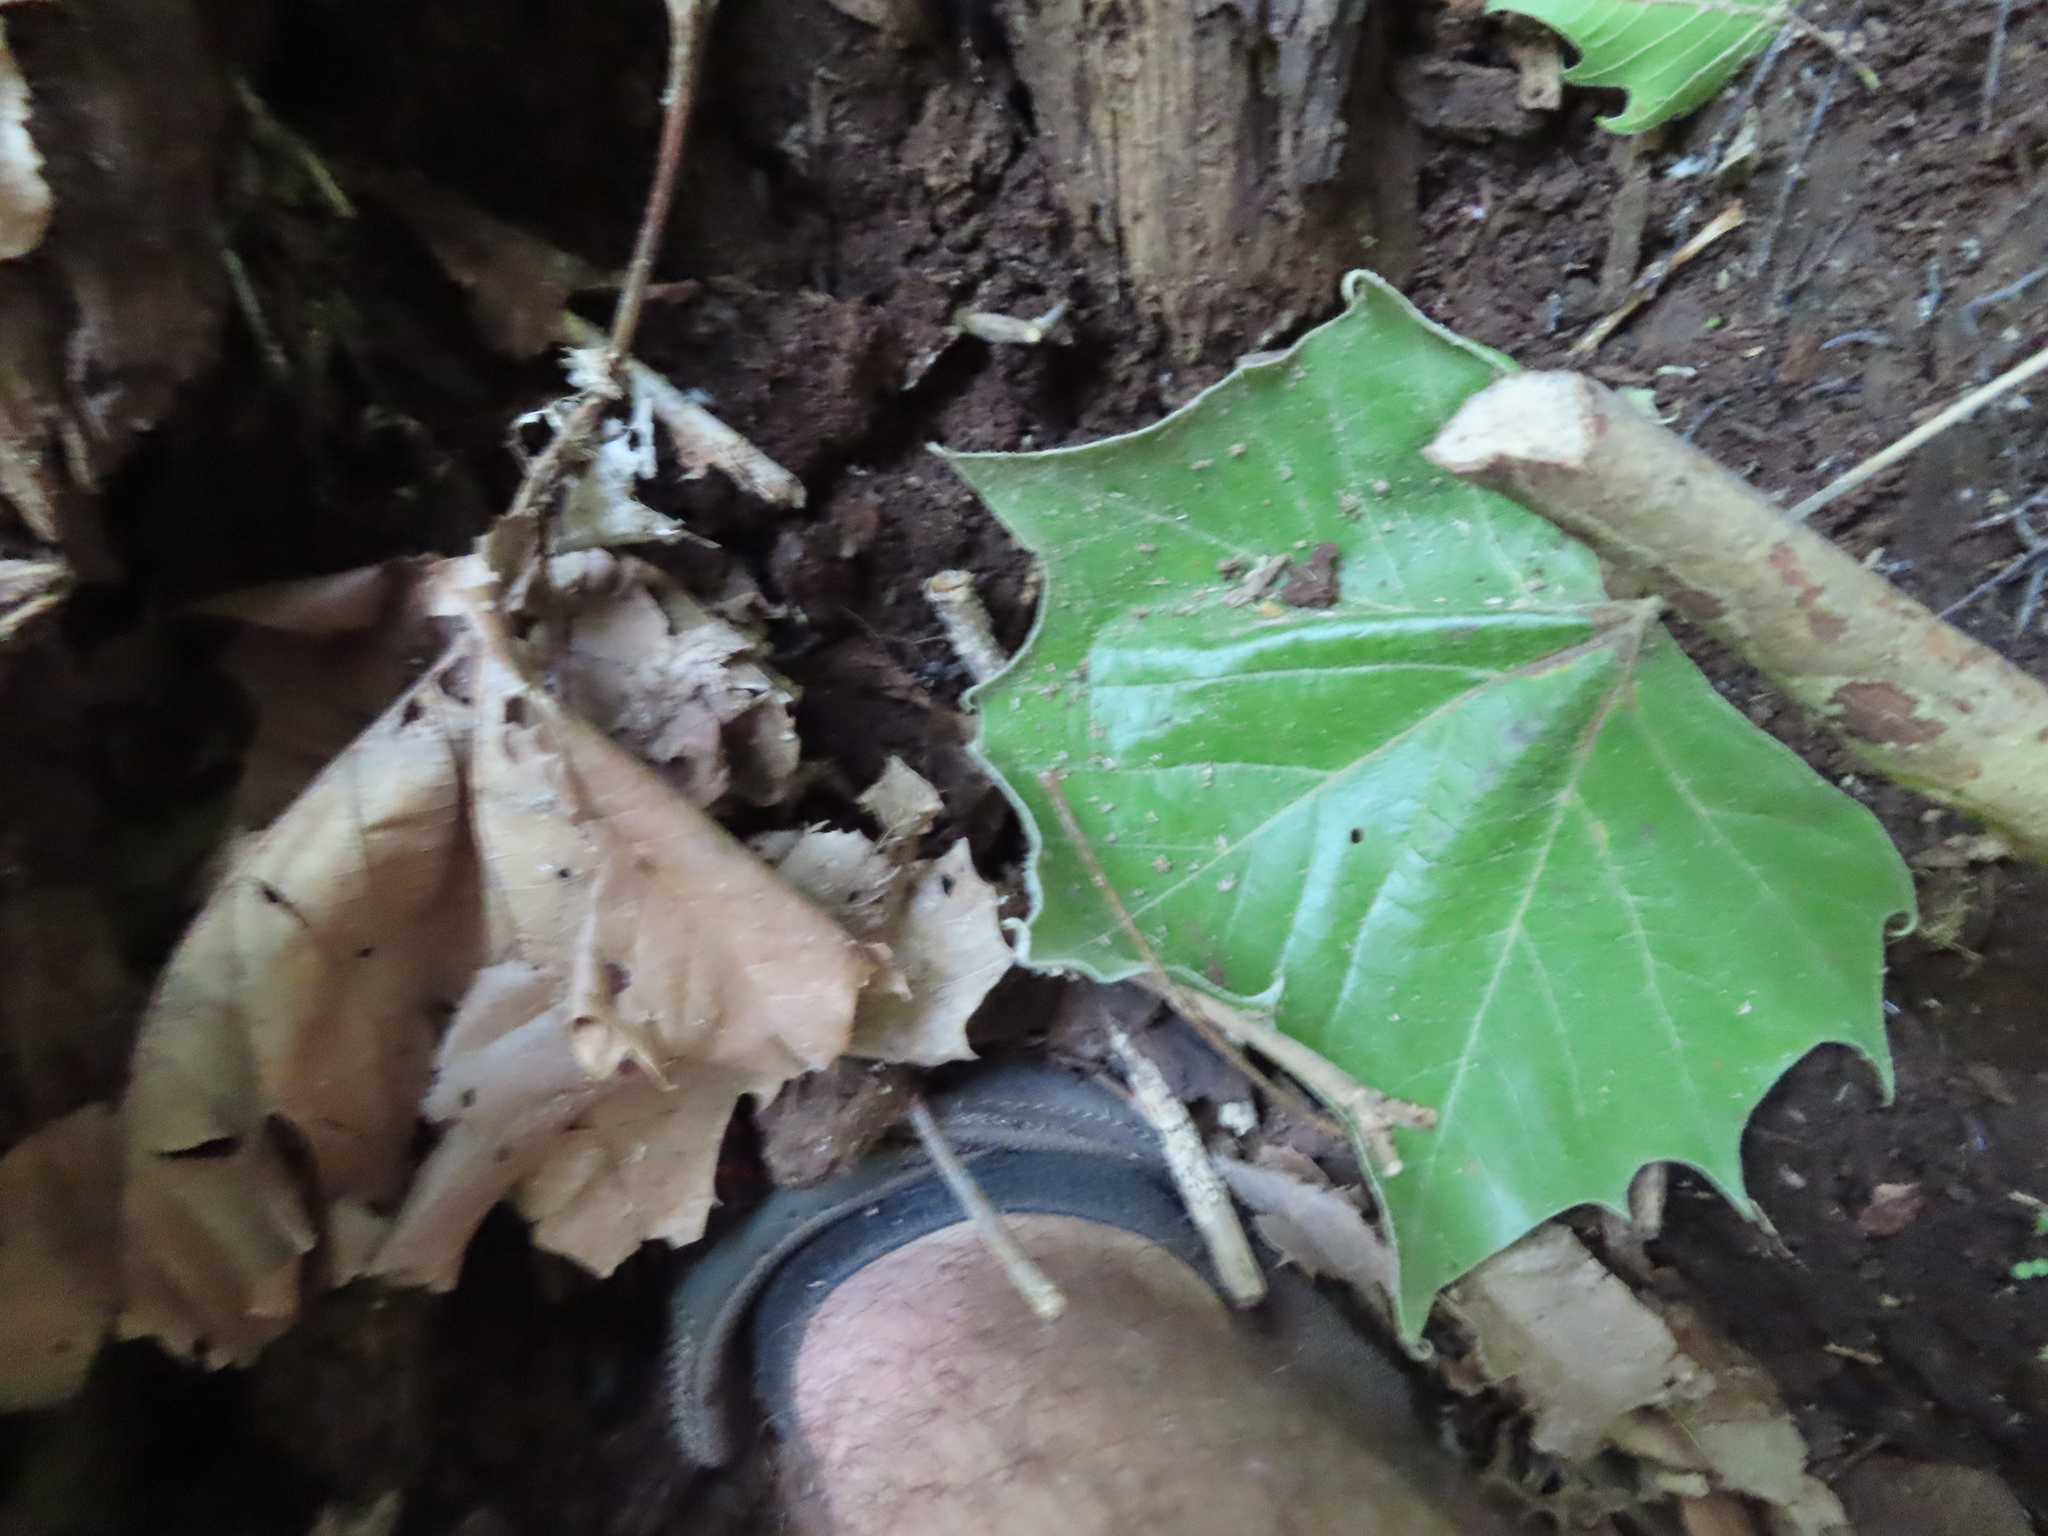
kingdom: Plantae
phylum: Tracheophyta
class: Magnoliopsida
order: Proteales
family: Platanaceae
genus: Platanus
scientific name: Platanus occidentalis
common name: American sycamore
